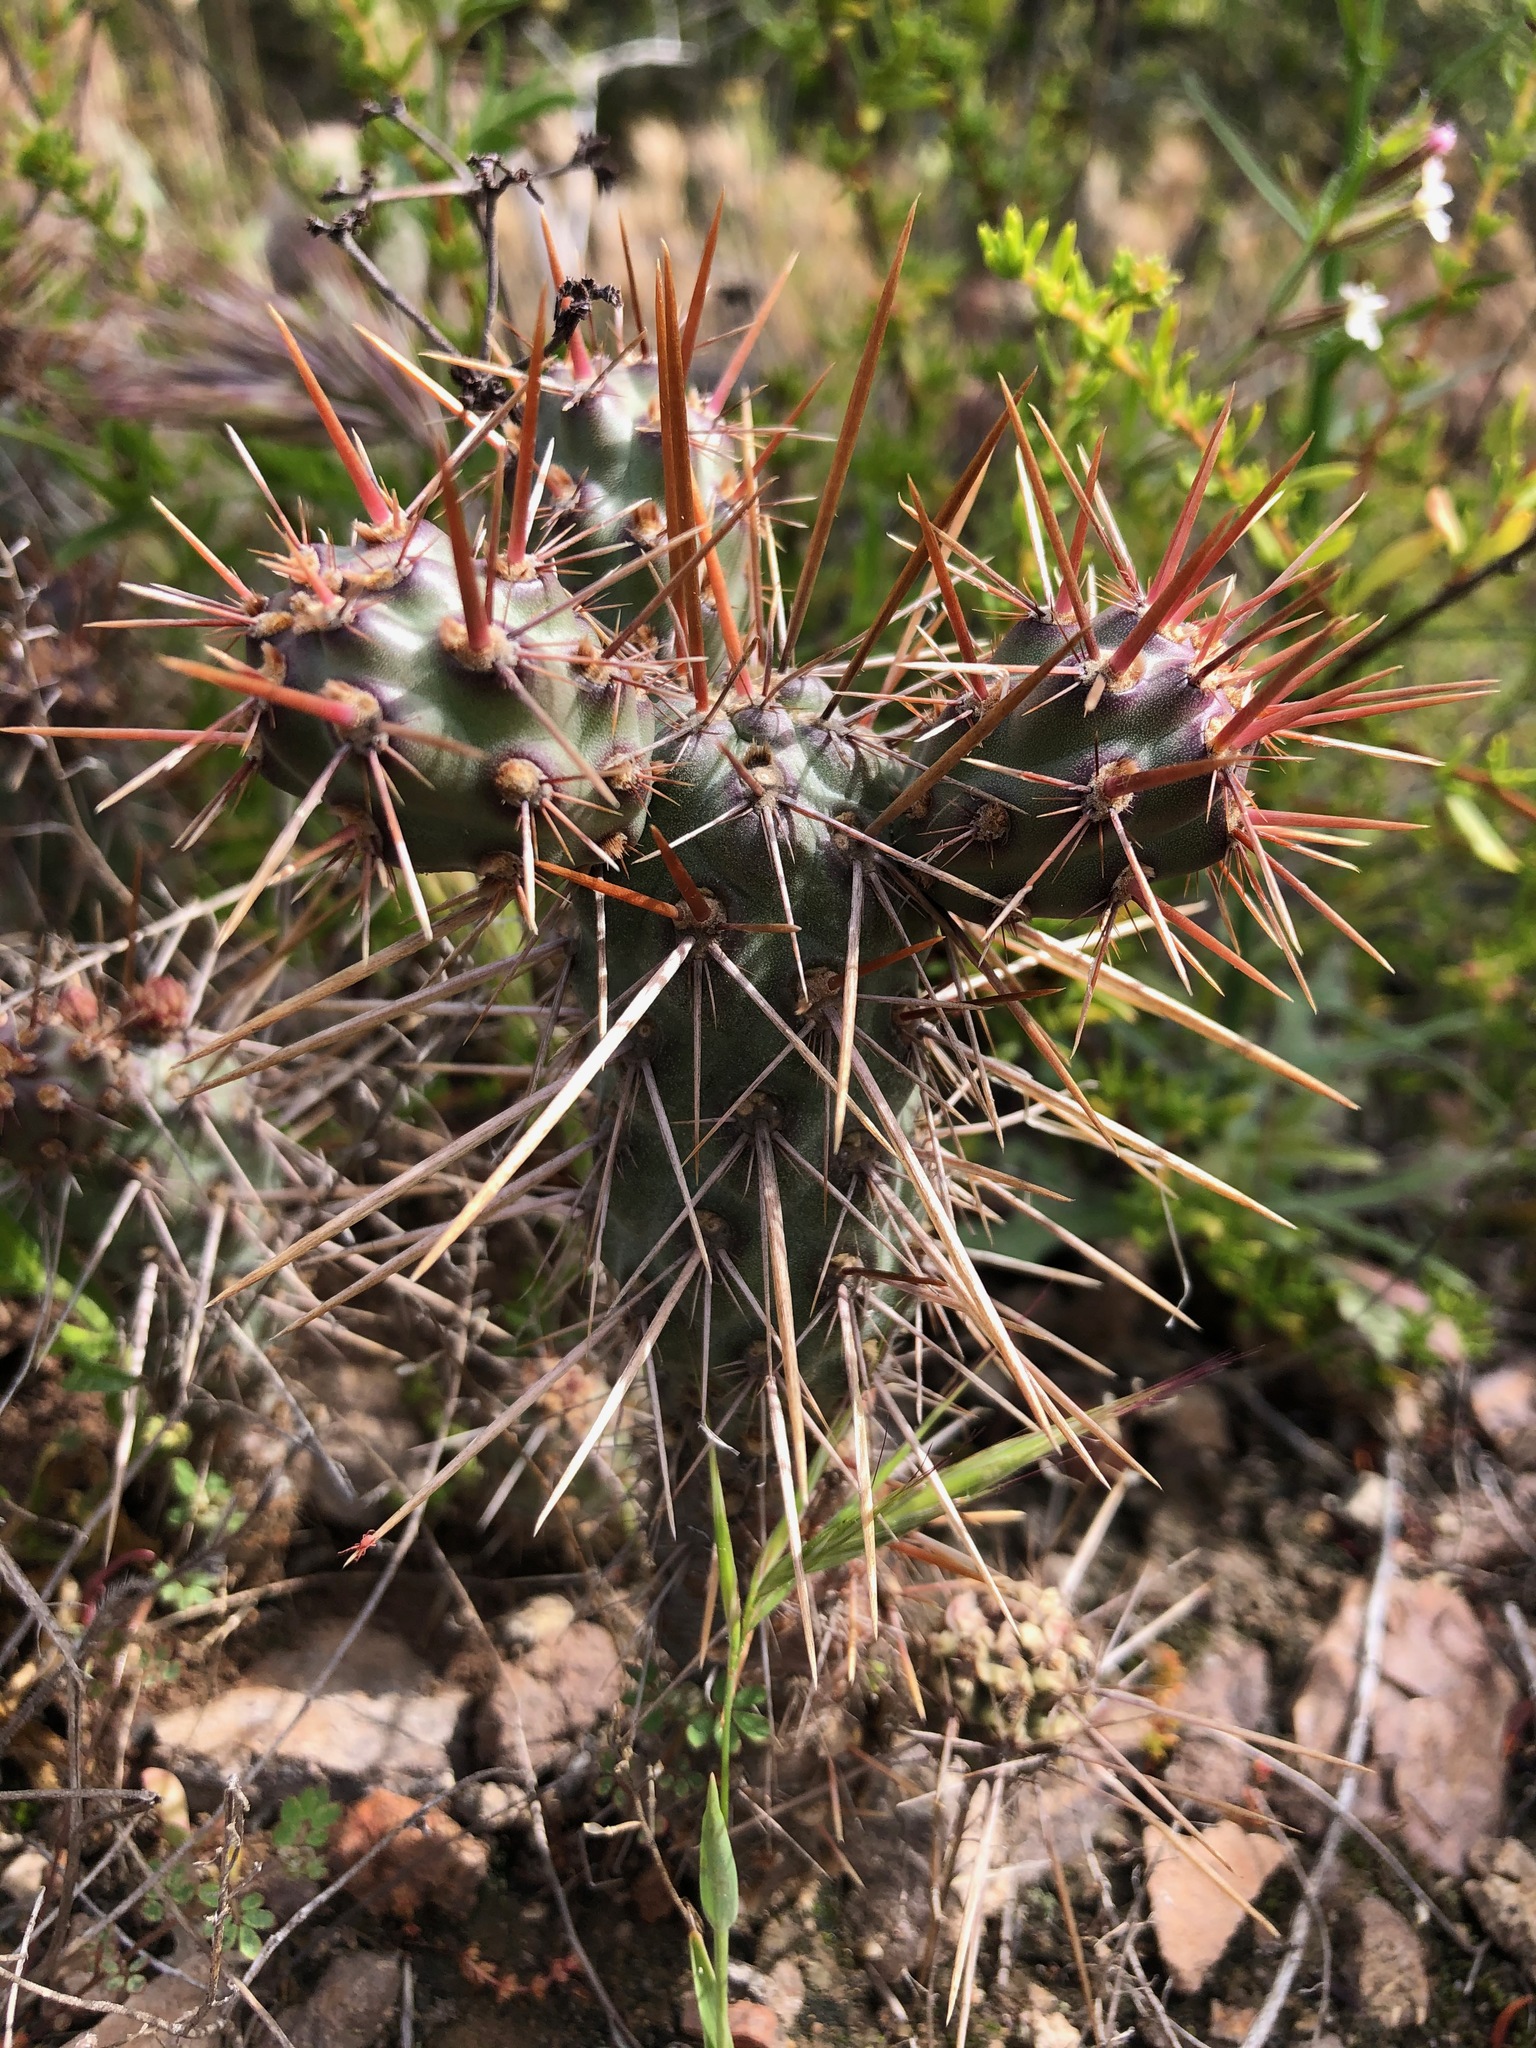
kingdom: Plantae
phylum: Tracheophyta
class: Magnoliopsida
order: Caryophyllales
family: Cactaceae
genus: Cylindropuntia
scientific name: Cylindropuntia prolifera
